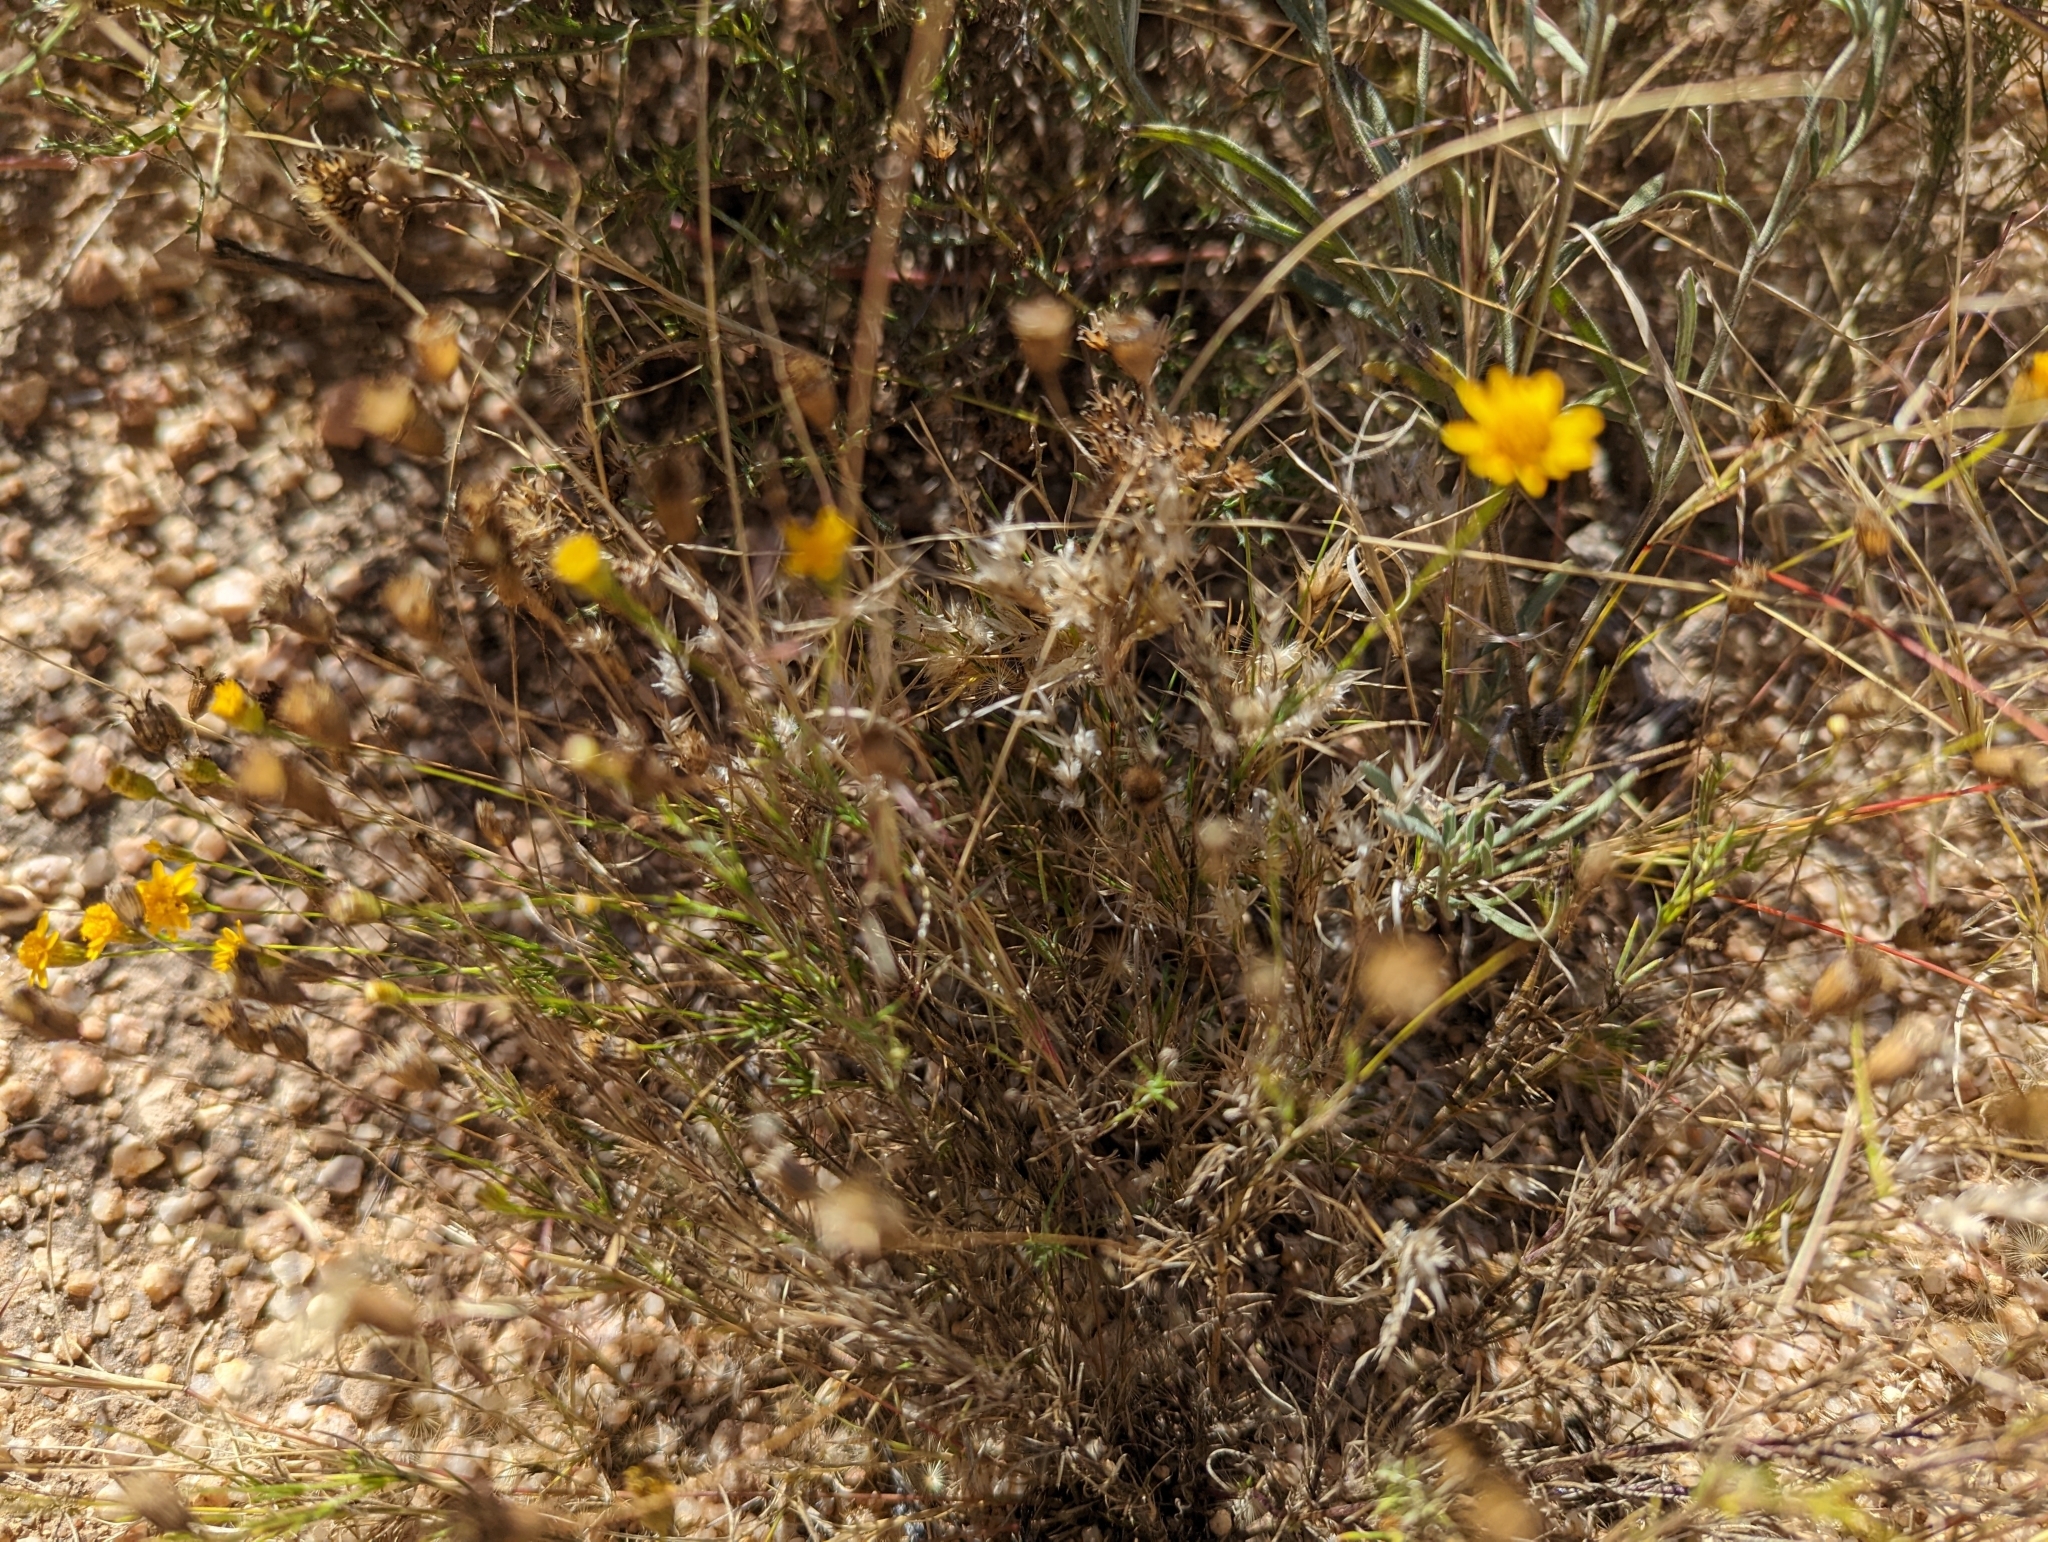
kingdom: Plantae
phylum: Tracheophyta
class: Magnoliopsida
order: Asterales
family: Asteraceae
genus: Thymophylla
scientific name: Thymophylla pentachaeta
